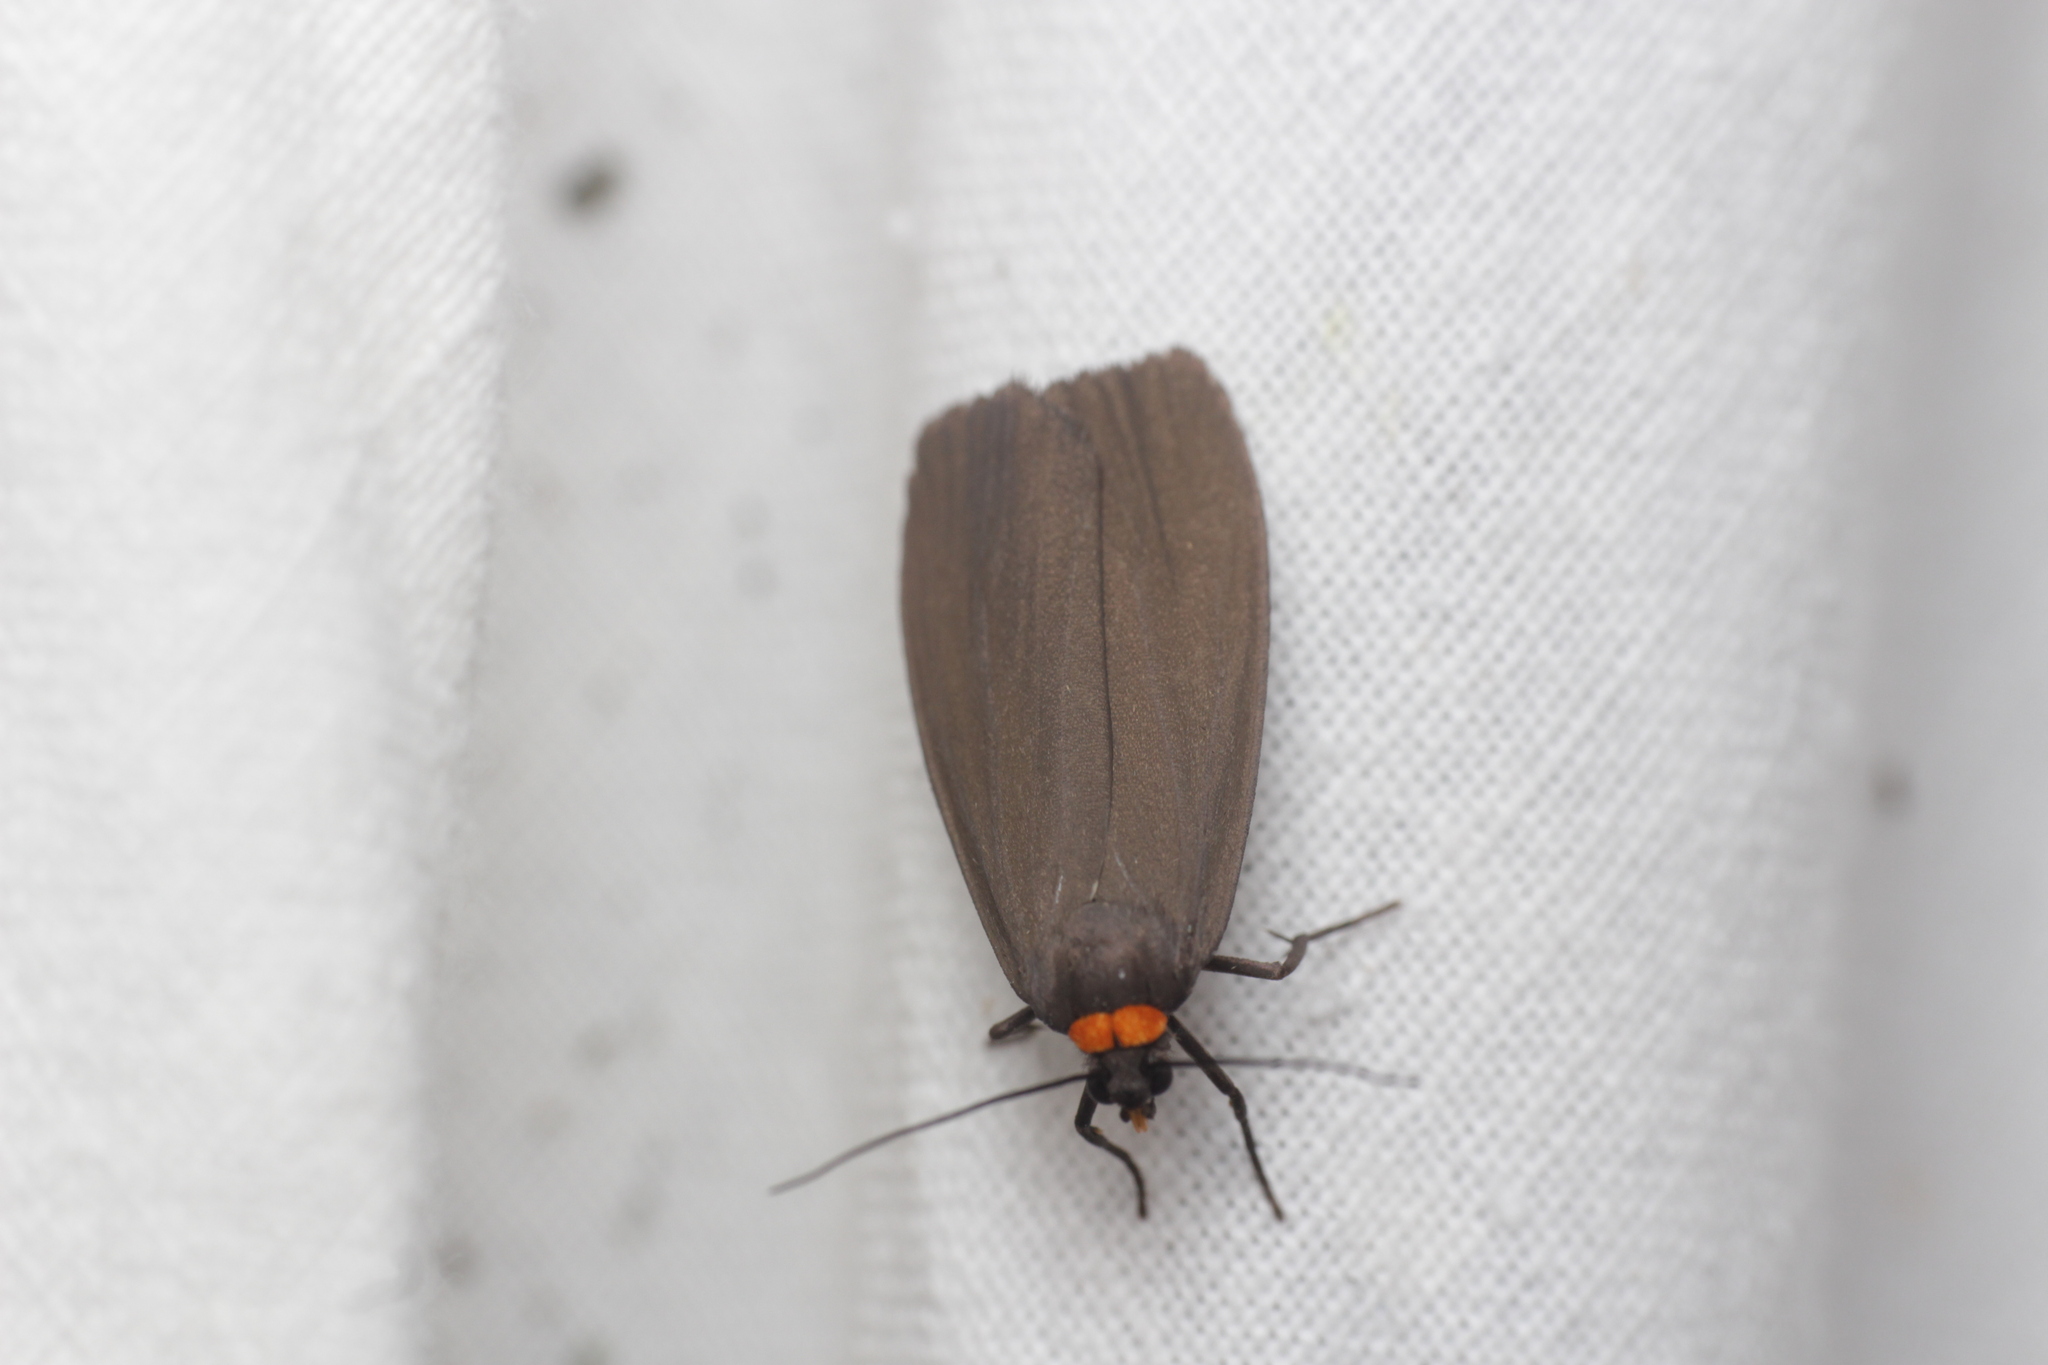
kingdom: Animalia
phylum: Arthropoda
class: Insecta
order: Lepidoptera
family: Erebidae
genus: Atolmis
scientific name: Atolmis rubricollis
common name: Red-necked footman
